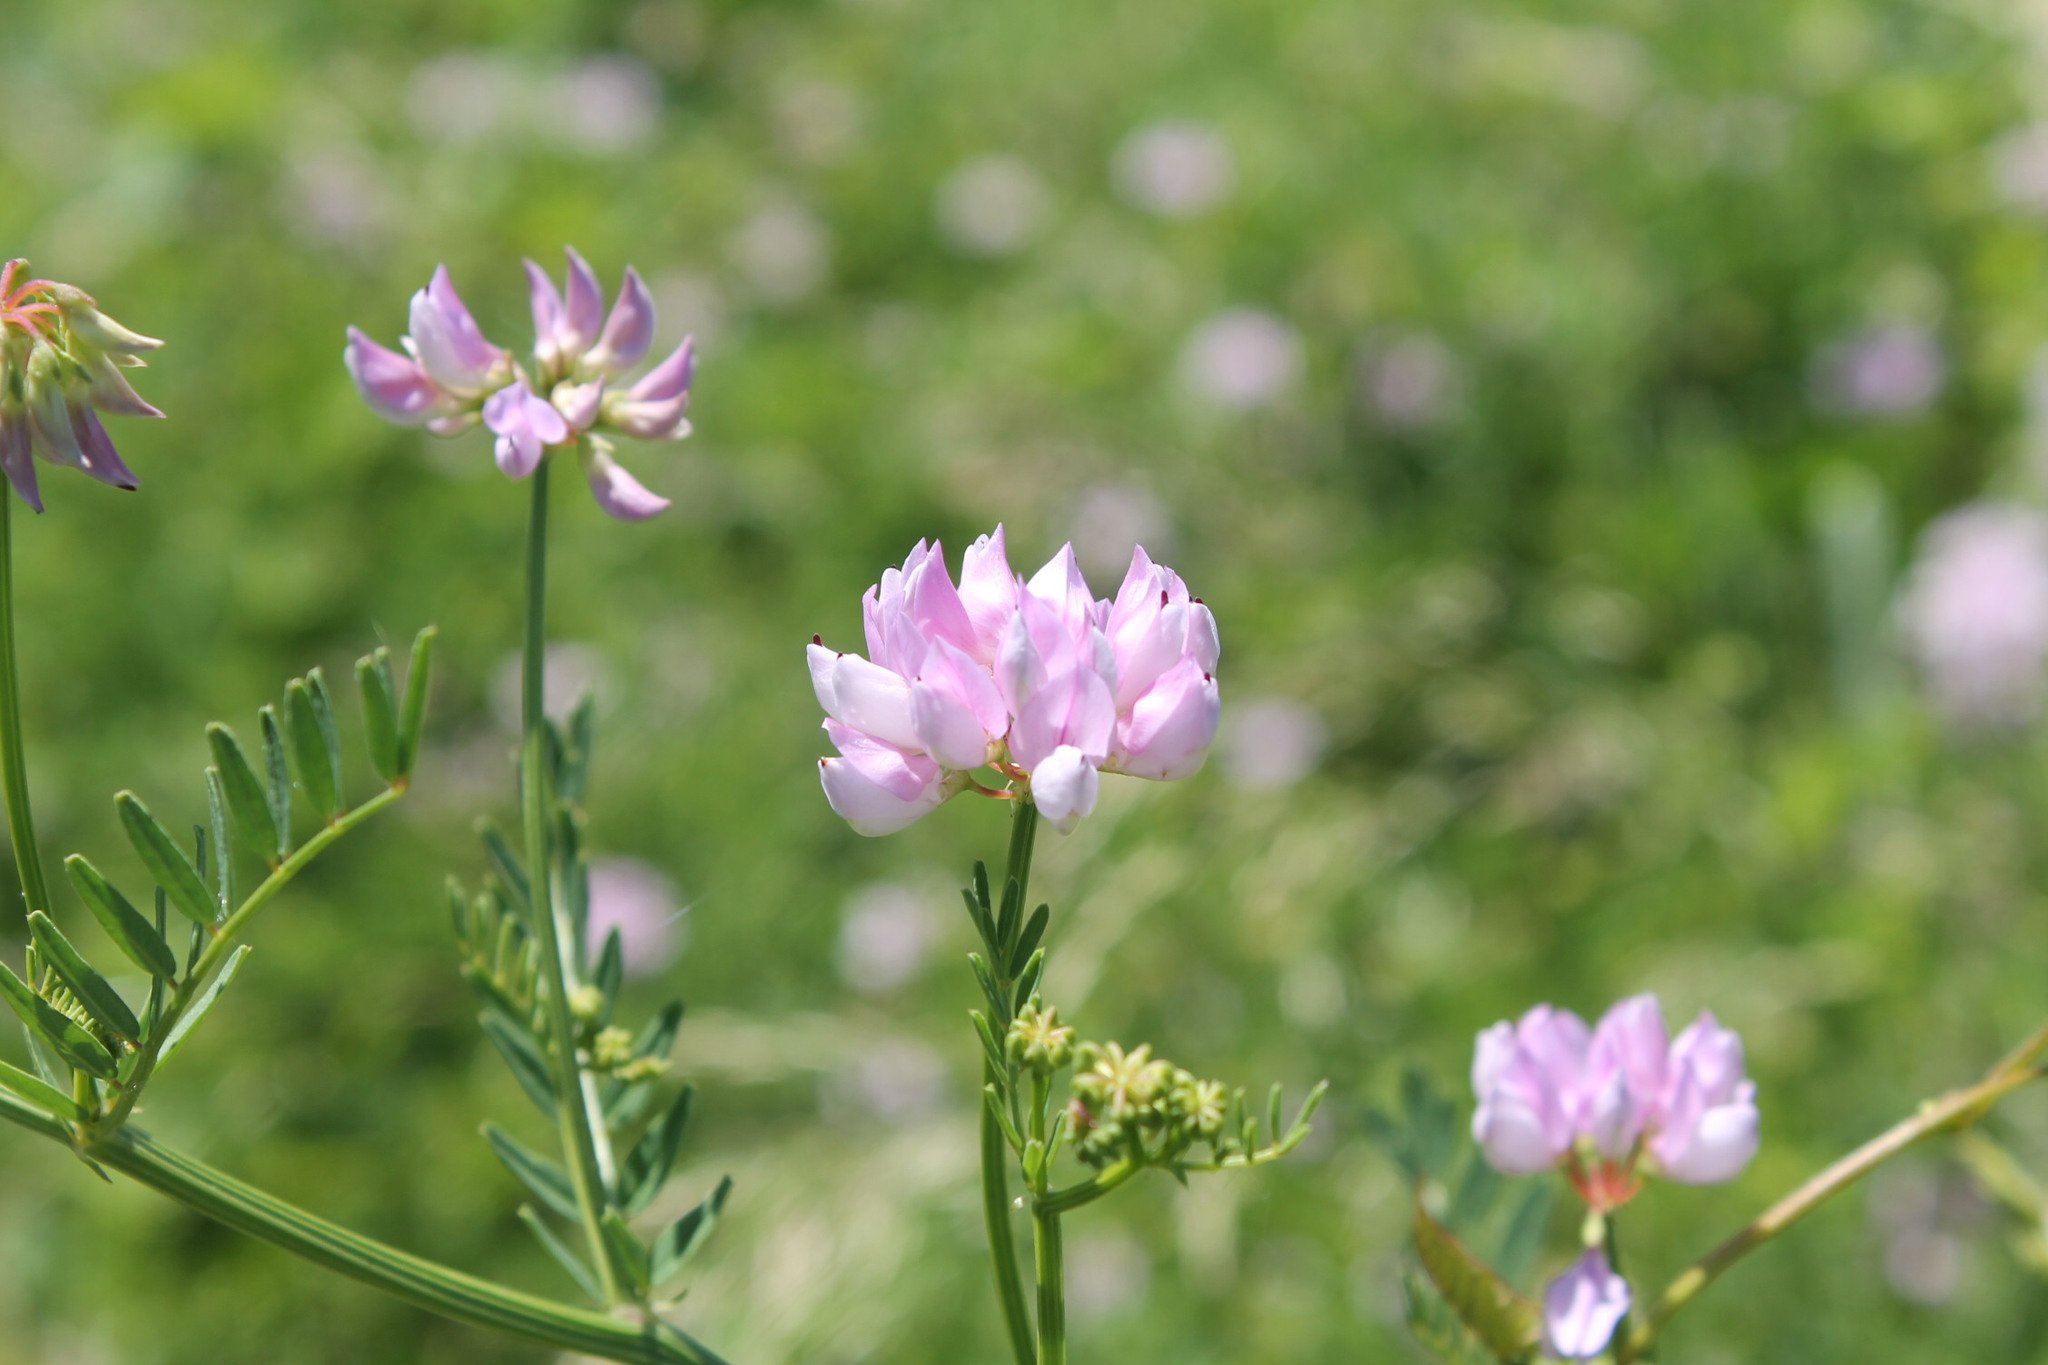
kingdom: Plantae
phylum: Tracheophyta
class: Magnoliopsida
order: Fabales
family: Fabaceae
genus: Coronilla
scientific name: Coronilla varia
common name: Crownvetch
